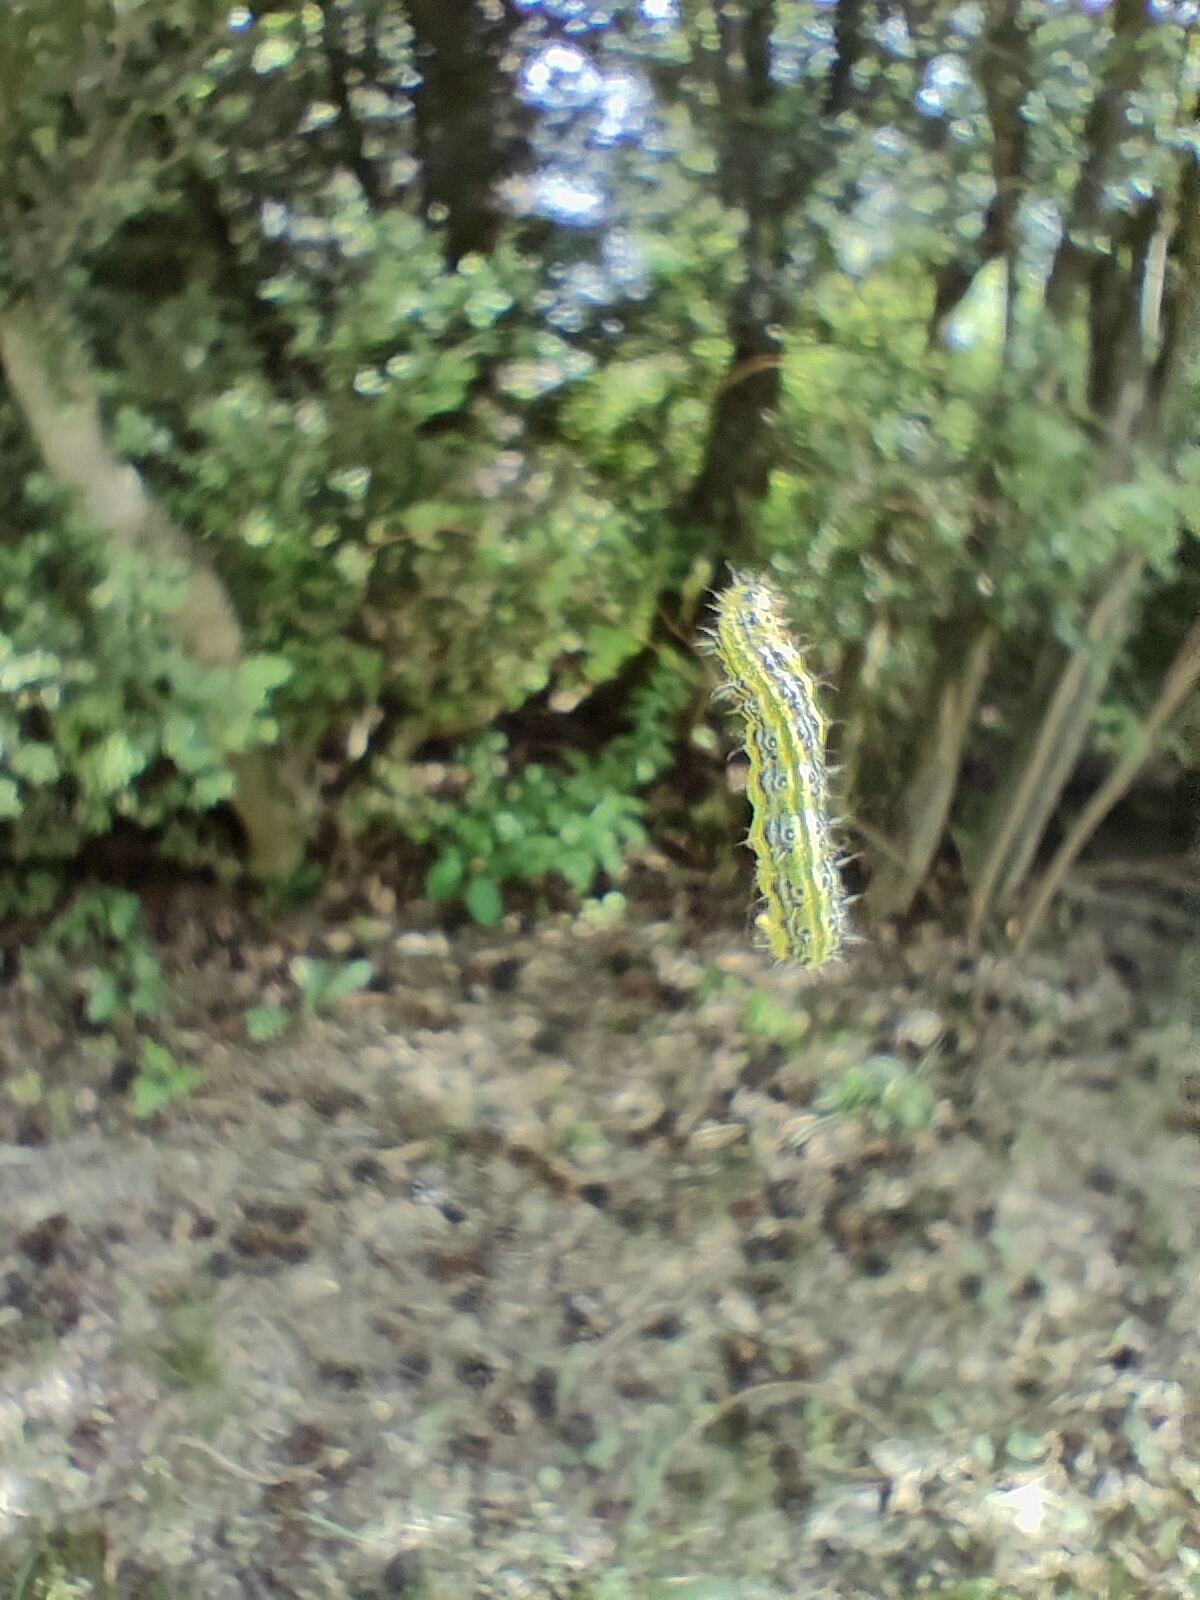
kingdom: Animalia
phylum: Arthropoda
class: Insecta
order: Lepidoptera
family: Crambidae
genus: Cydalima
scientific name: Cydalima perspectalis
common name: Box tree moth
